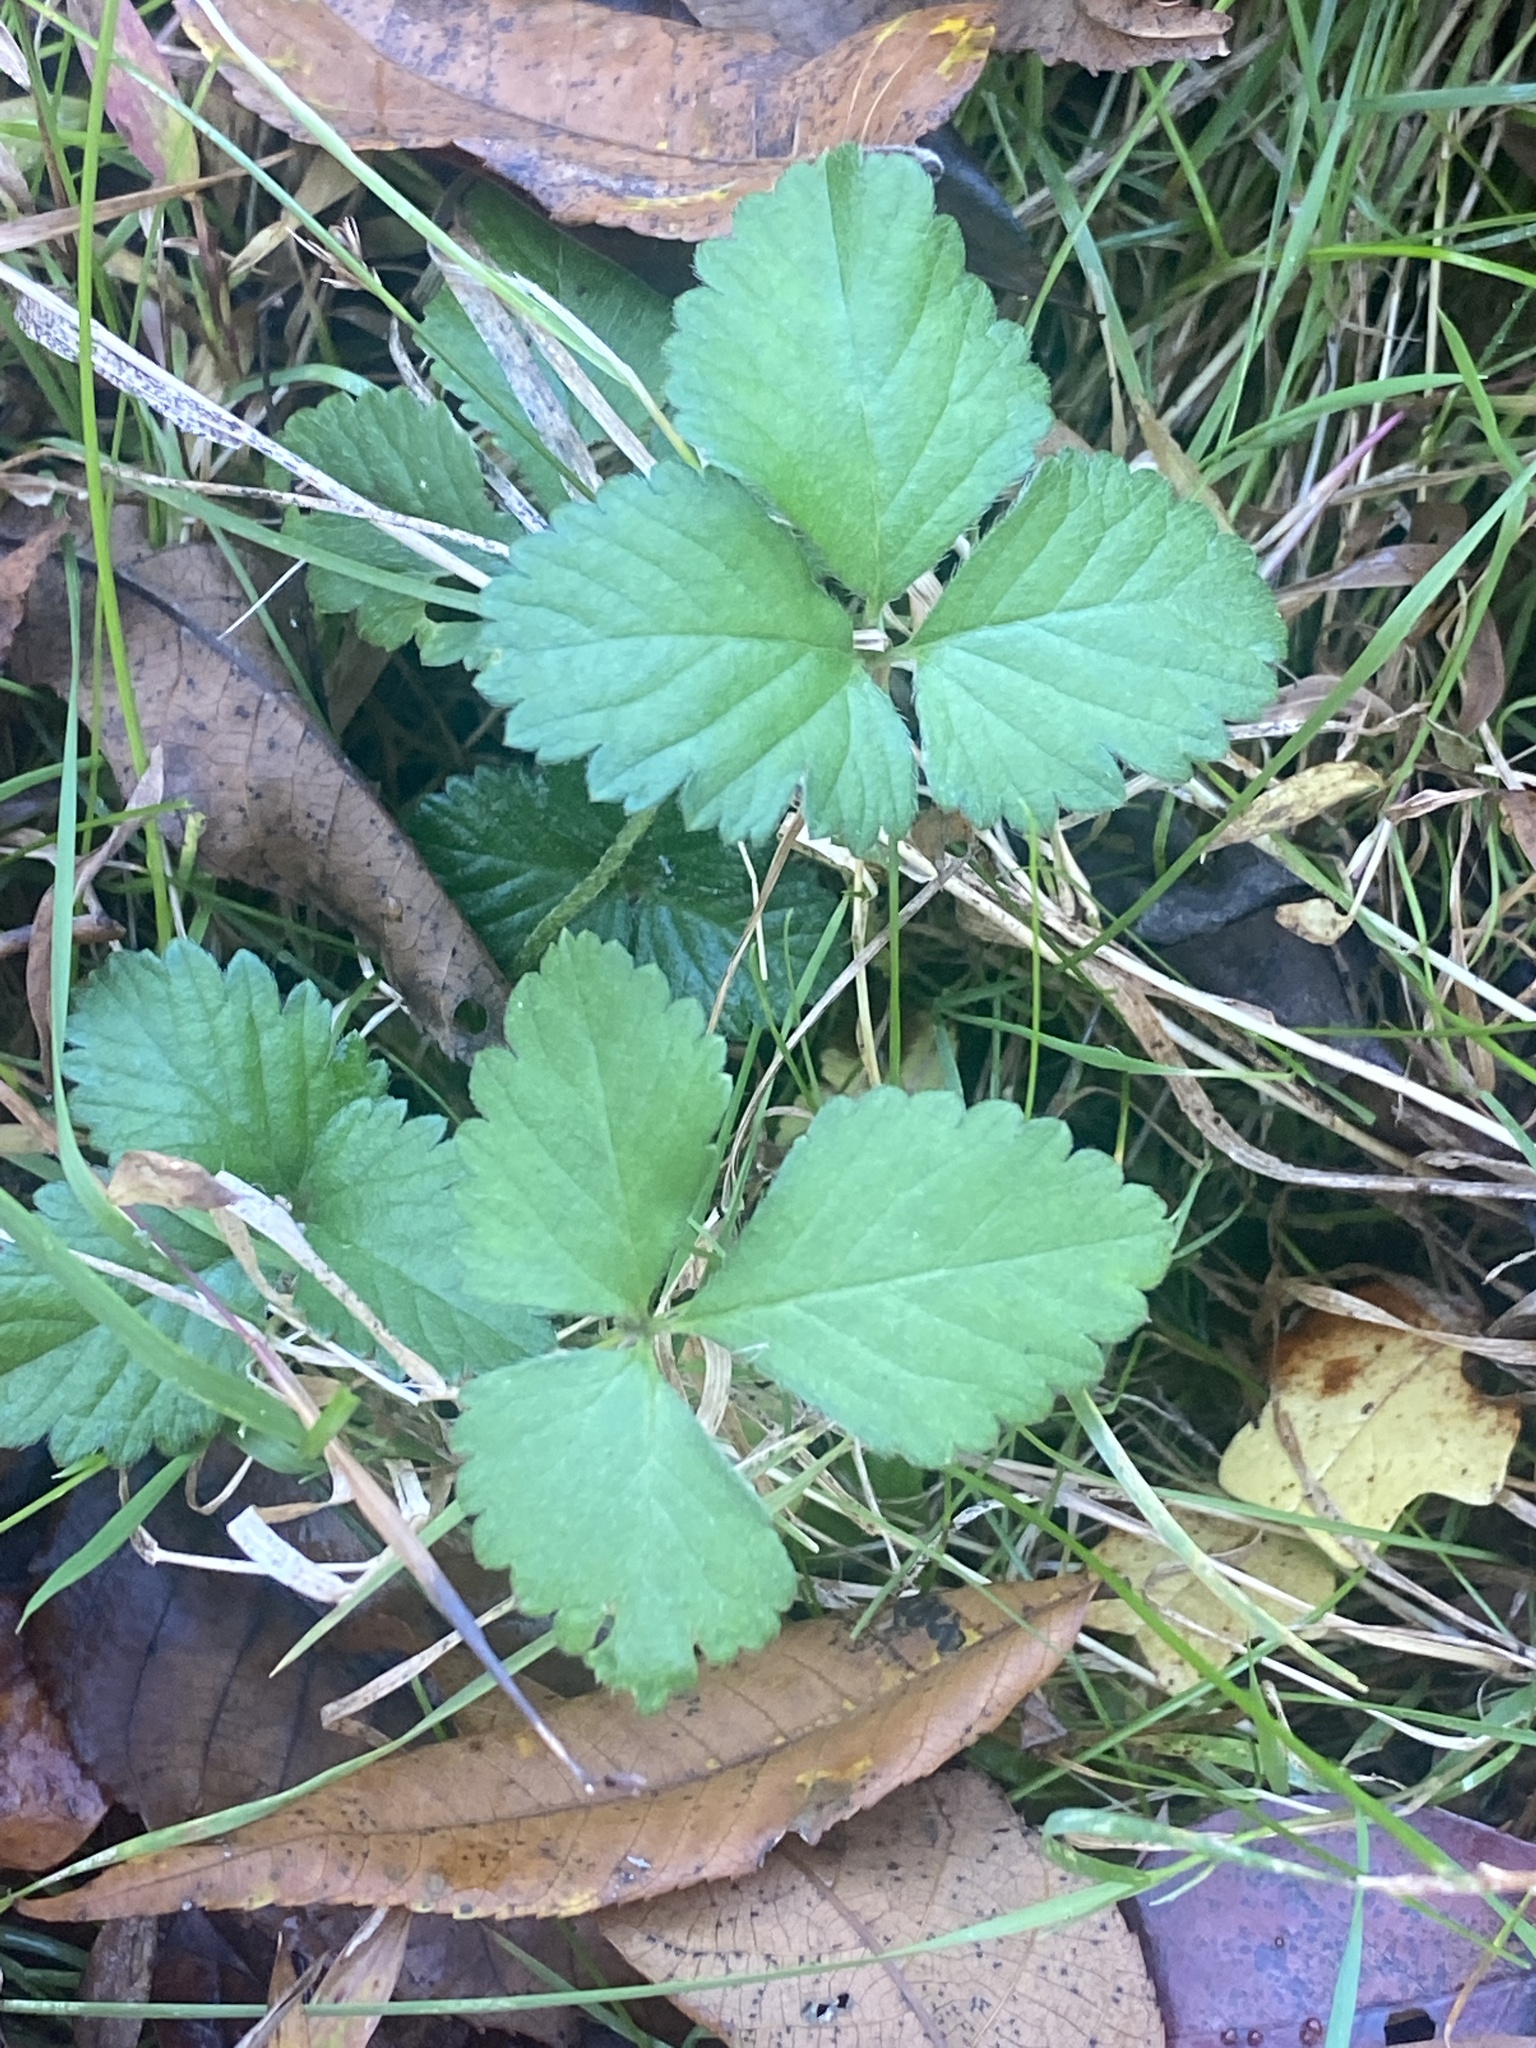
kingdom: Plantae
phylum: Tracheophyta
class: Magnoliopsida
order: Rosales
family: Rosaceae
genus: Potentilla
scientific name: Potentilla indica
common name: Yellow-flowered strawberry
